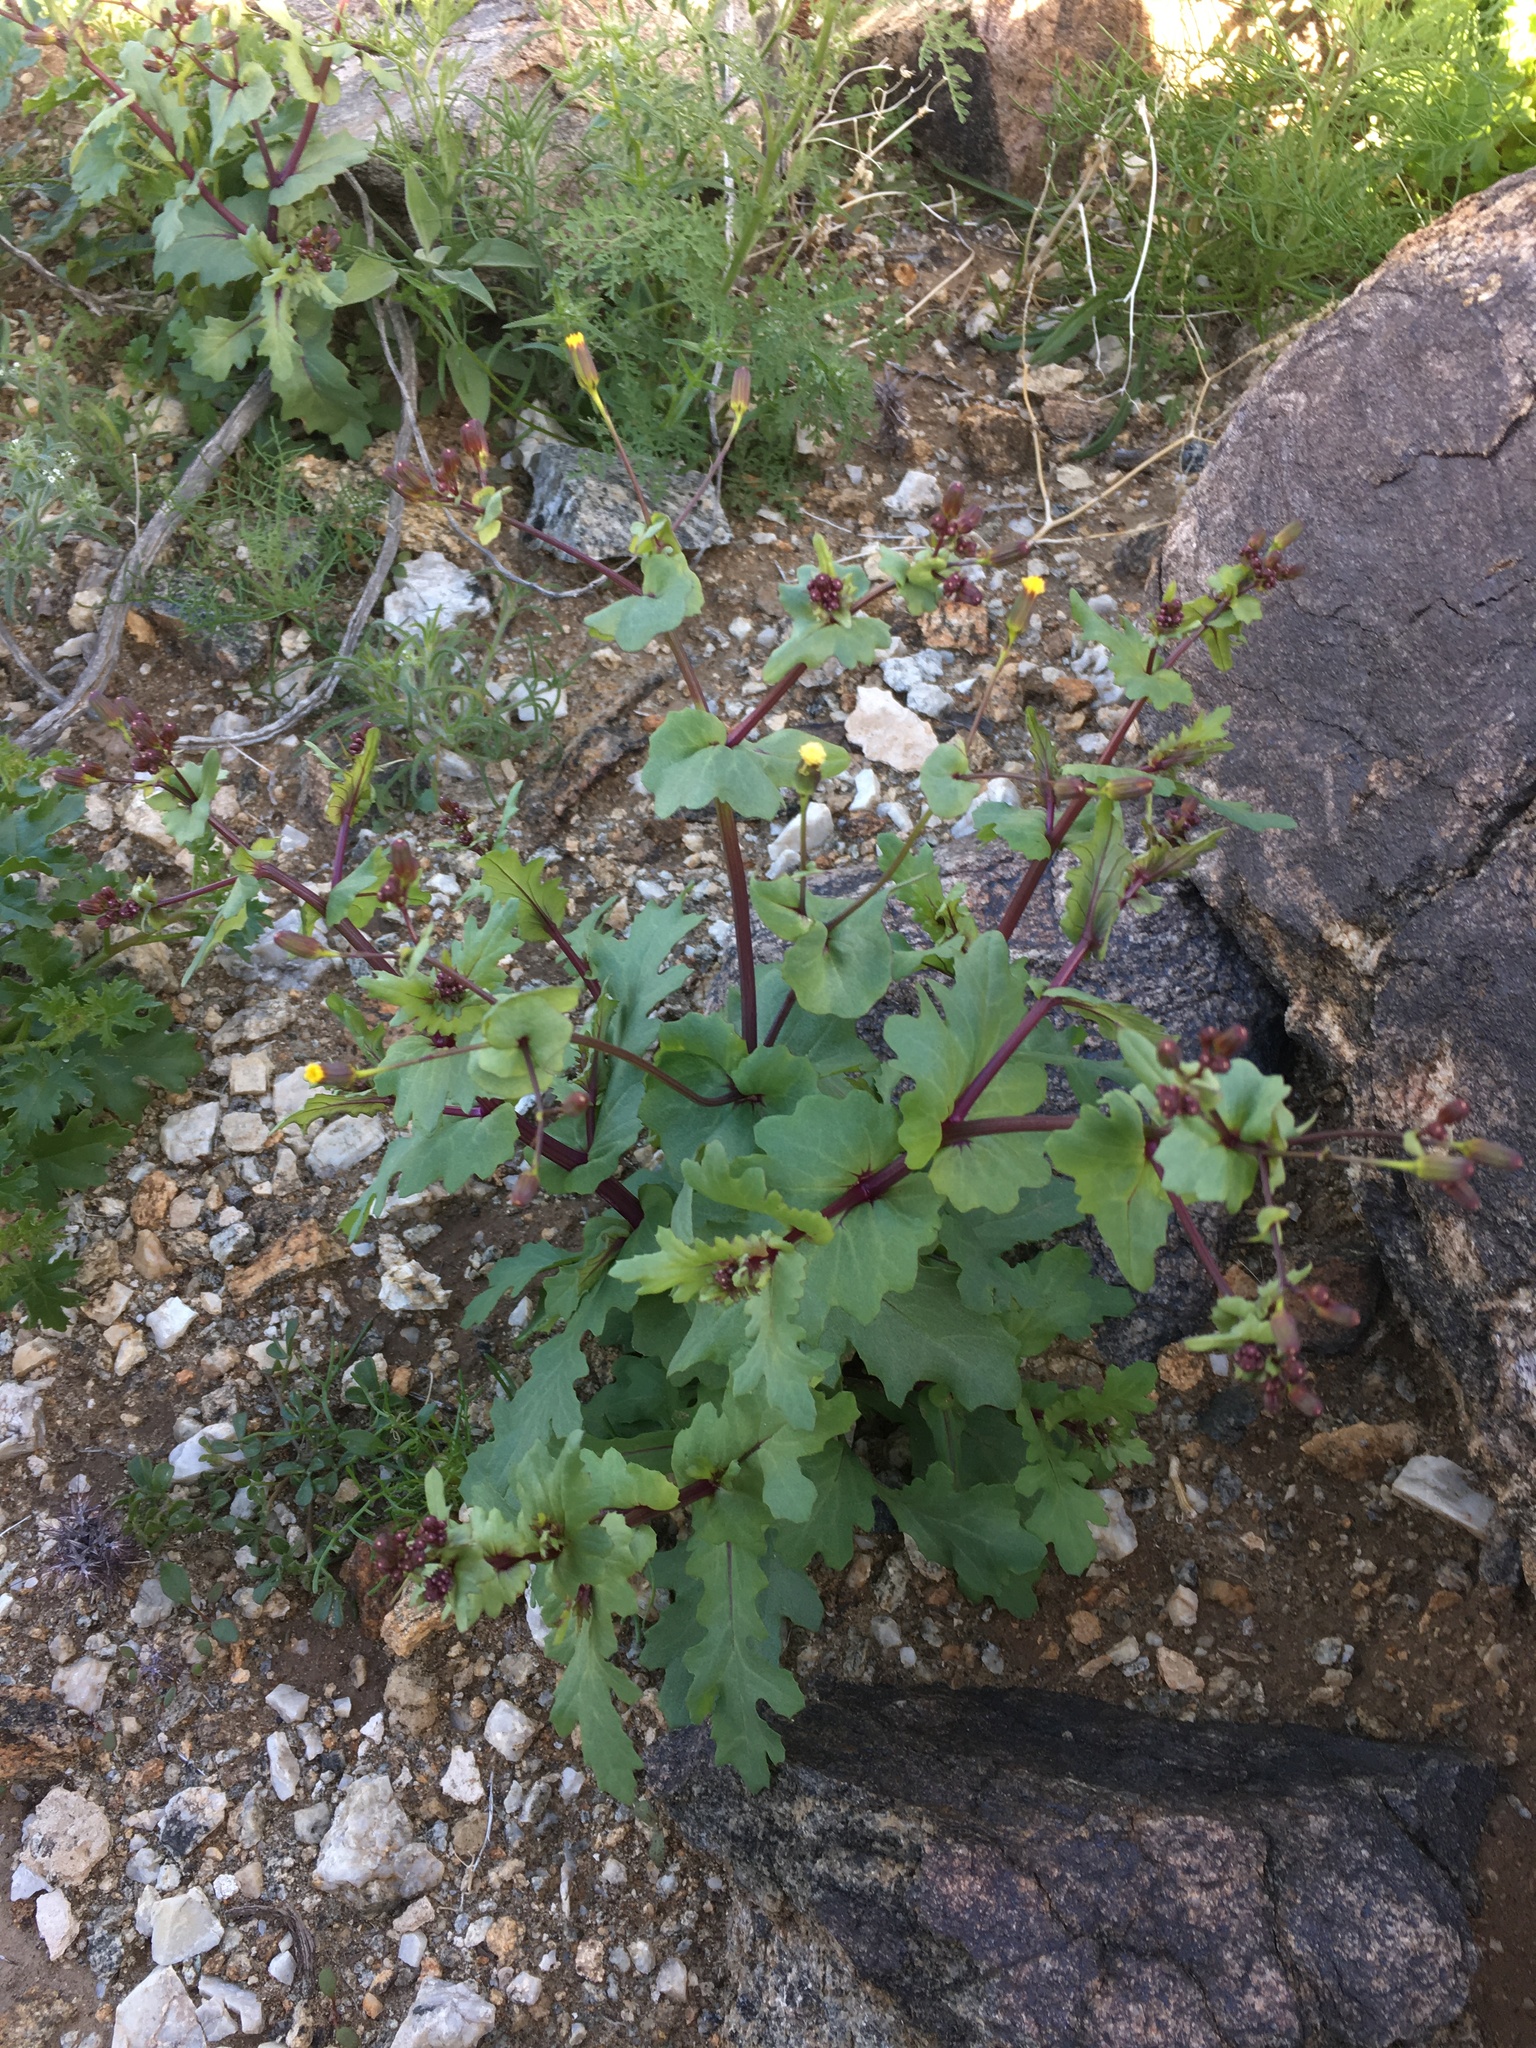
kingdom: Plantae
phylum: Tracheophyta
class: Magnoliopsida
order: Asterales
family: Asteraceae
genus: Senecio
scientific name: Senecio mohavensis
